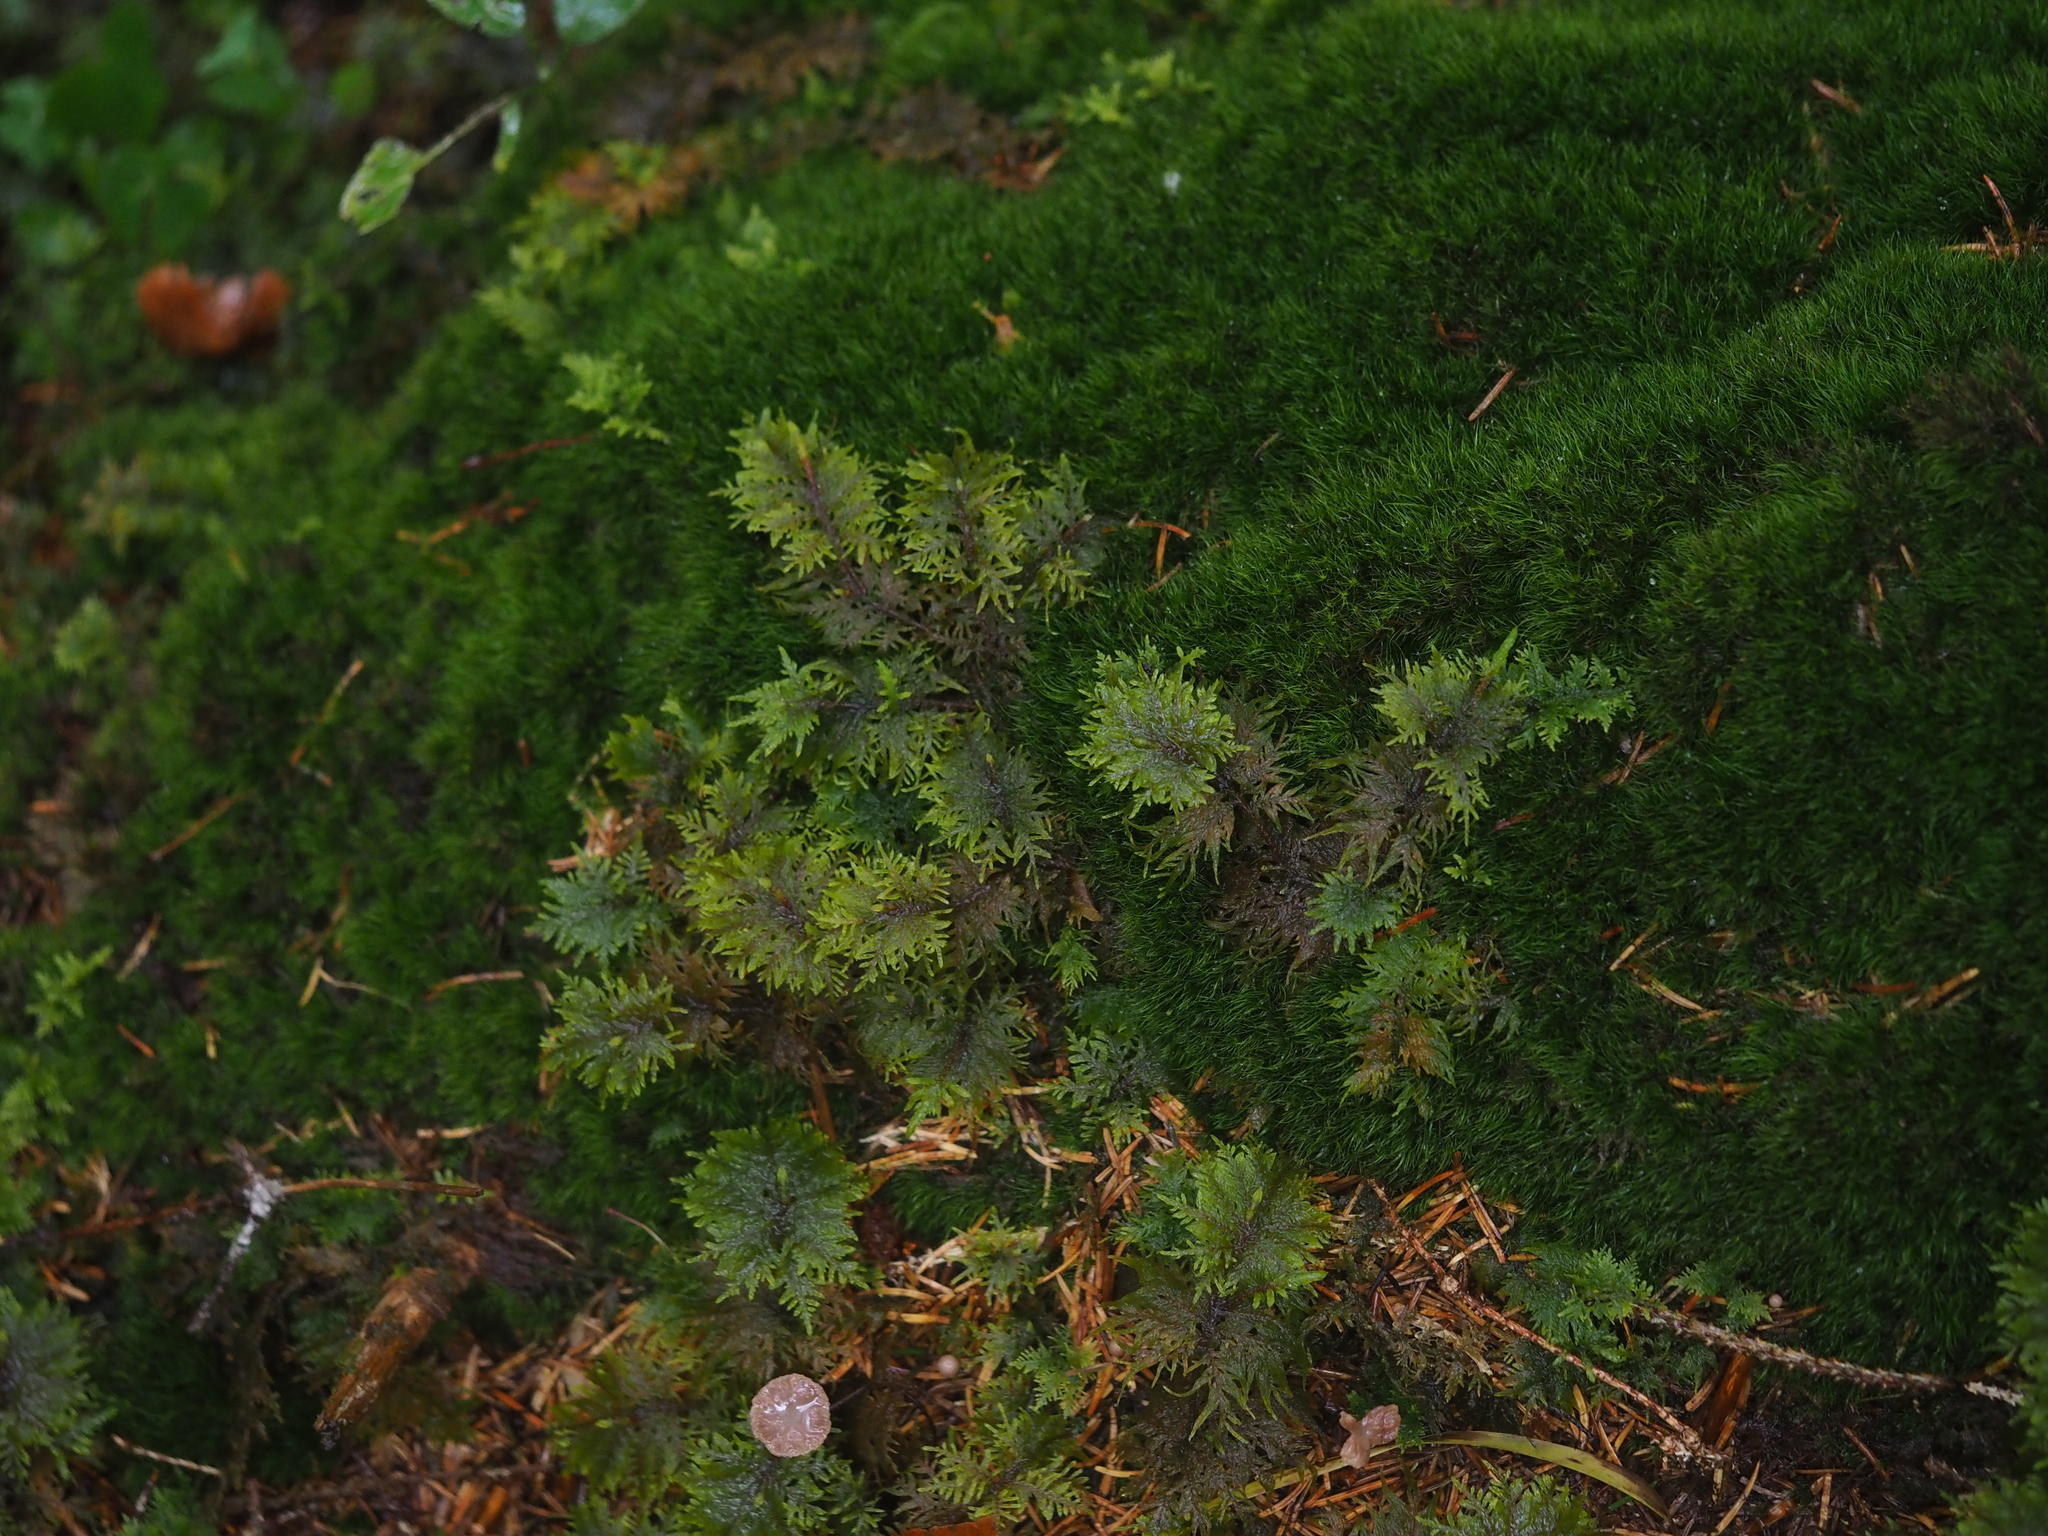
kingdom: Plantae
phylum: Bryophyta
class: Bryopsida
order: Hypnales
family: Hylocomiaceae
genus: Hylocomium
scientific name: Hylocomium splendens
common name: Stairstep moss
